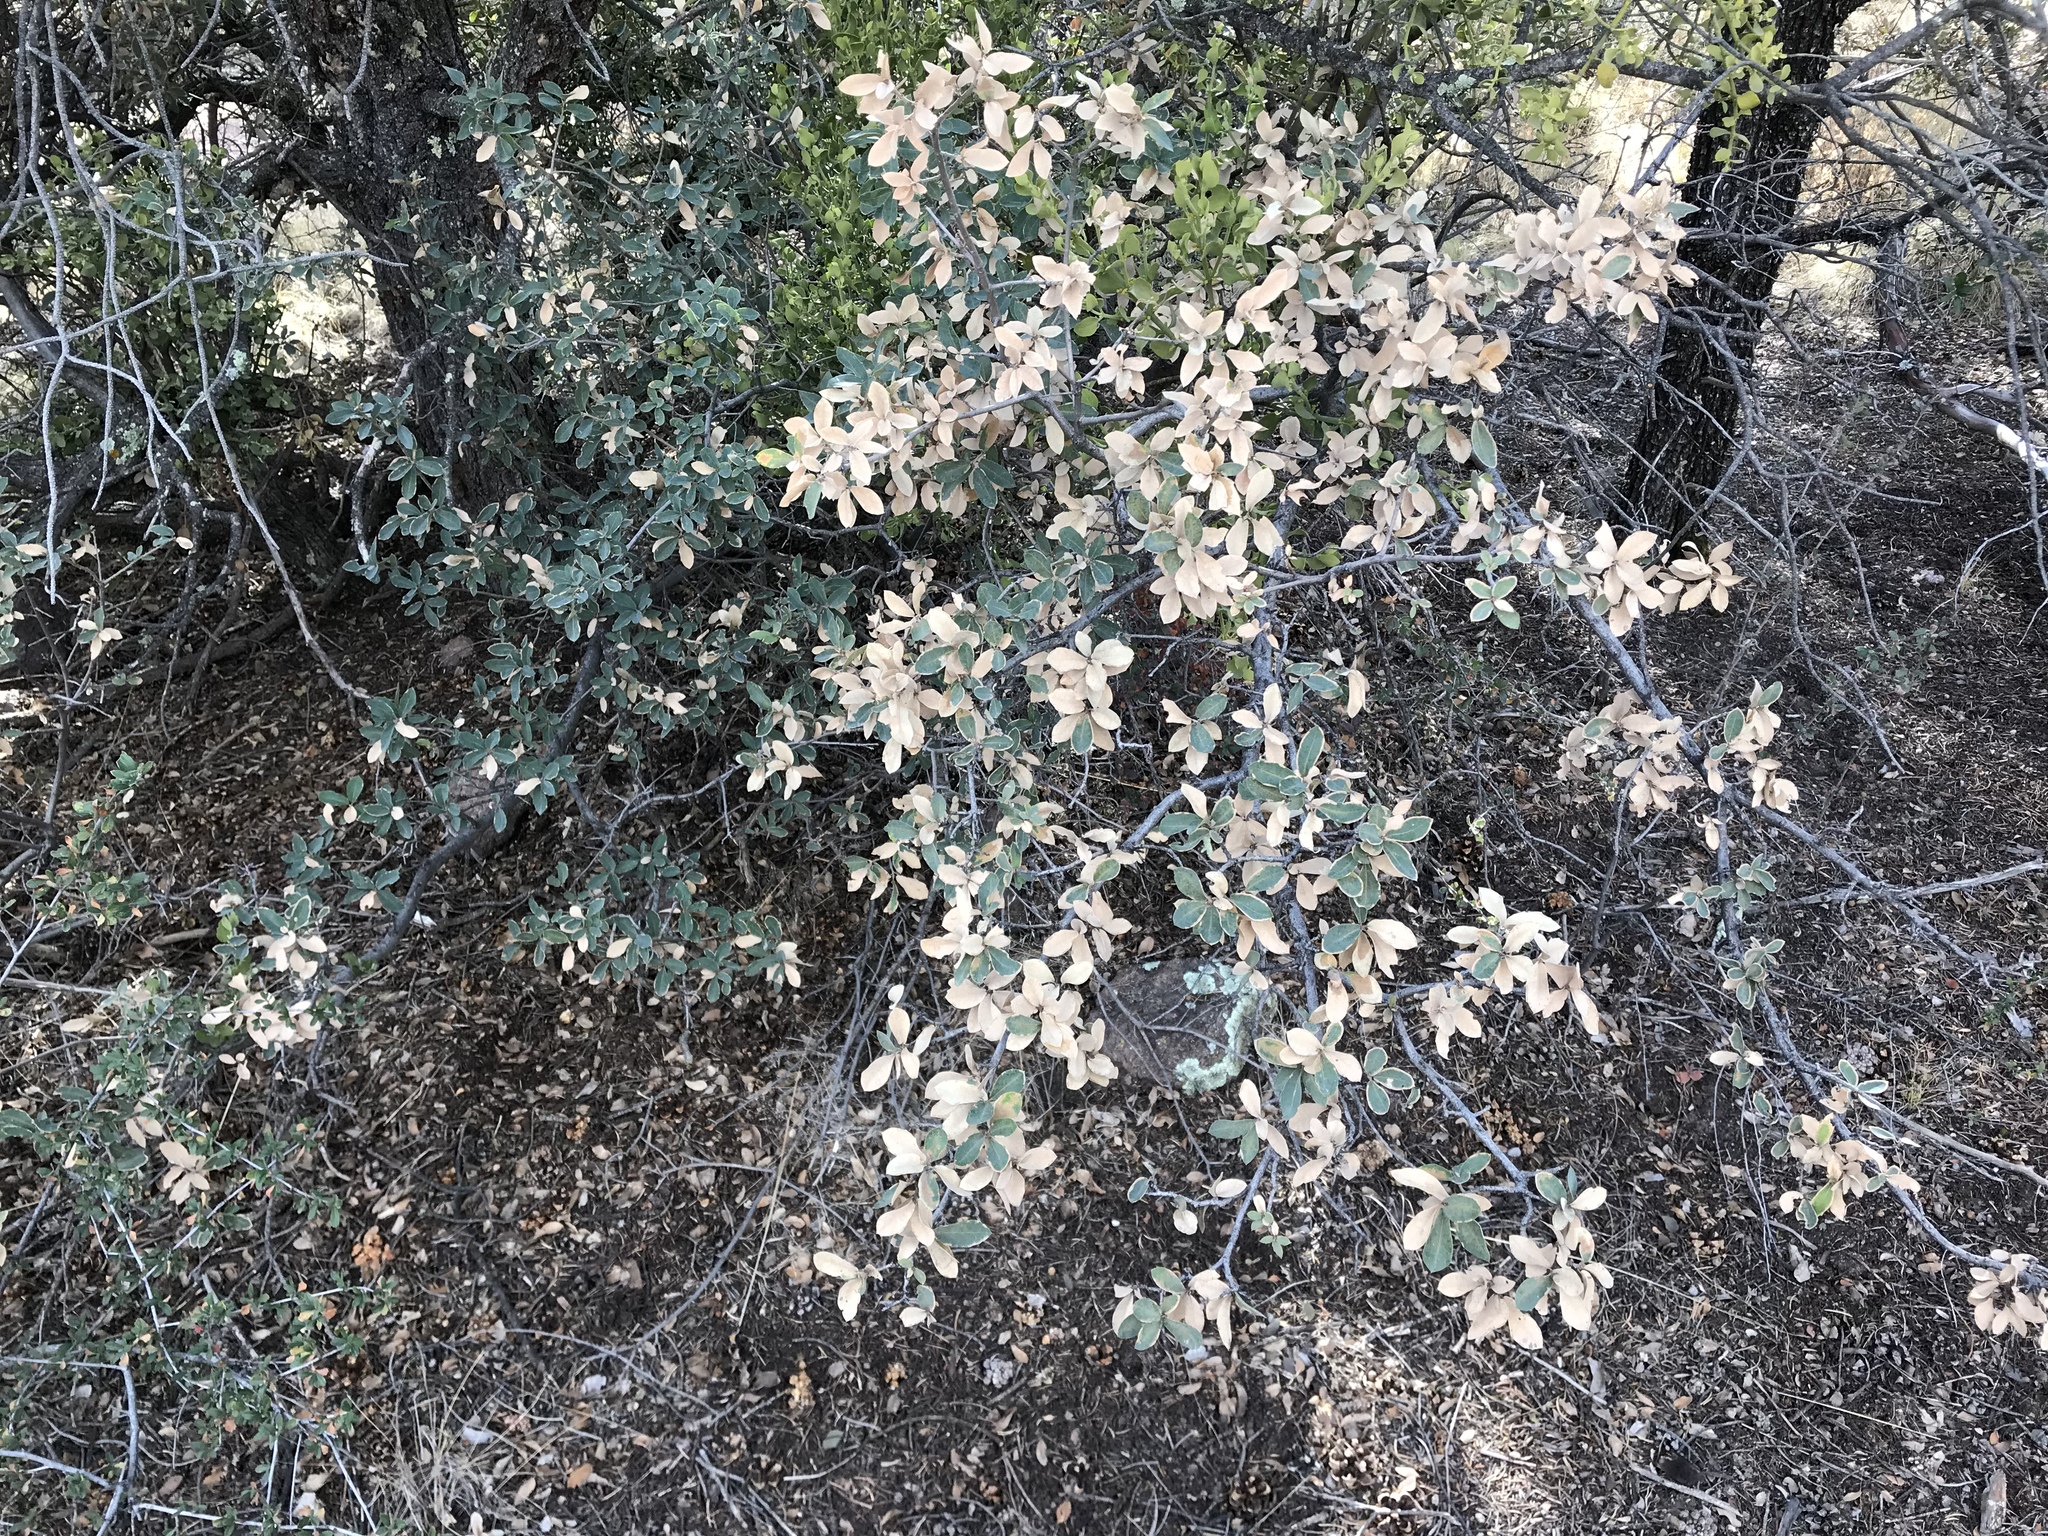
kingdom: Plantae
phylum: Tracheophyta
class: Magnoliopsida
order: Fagales
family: Fagaceae
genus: Quercus
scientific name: Quercus grisea
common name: Gray oak
